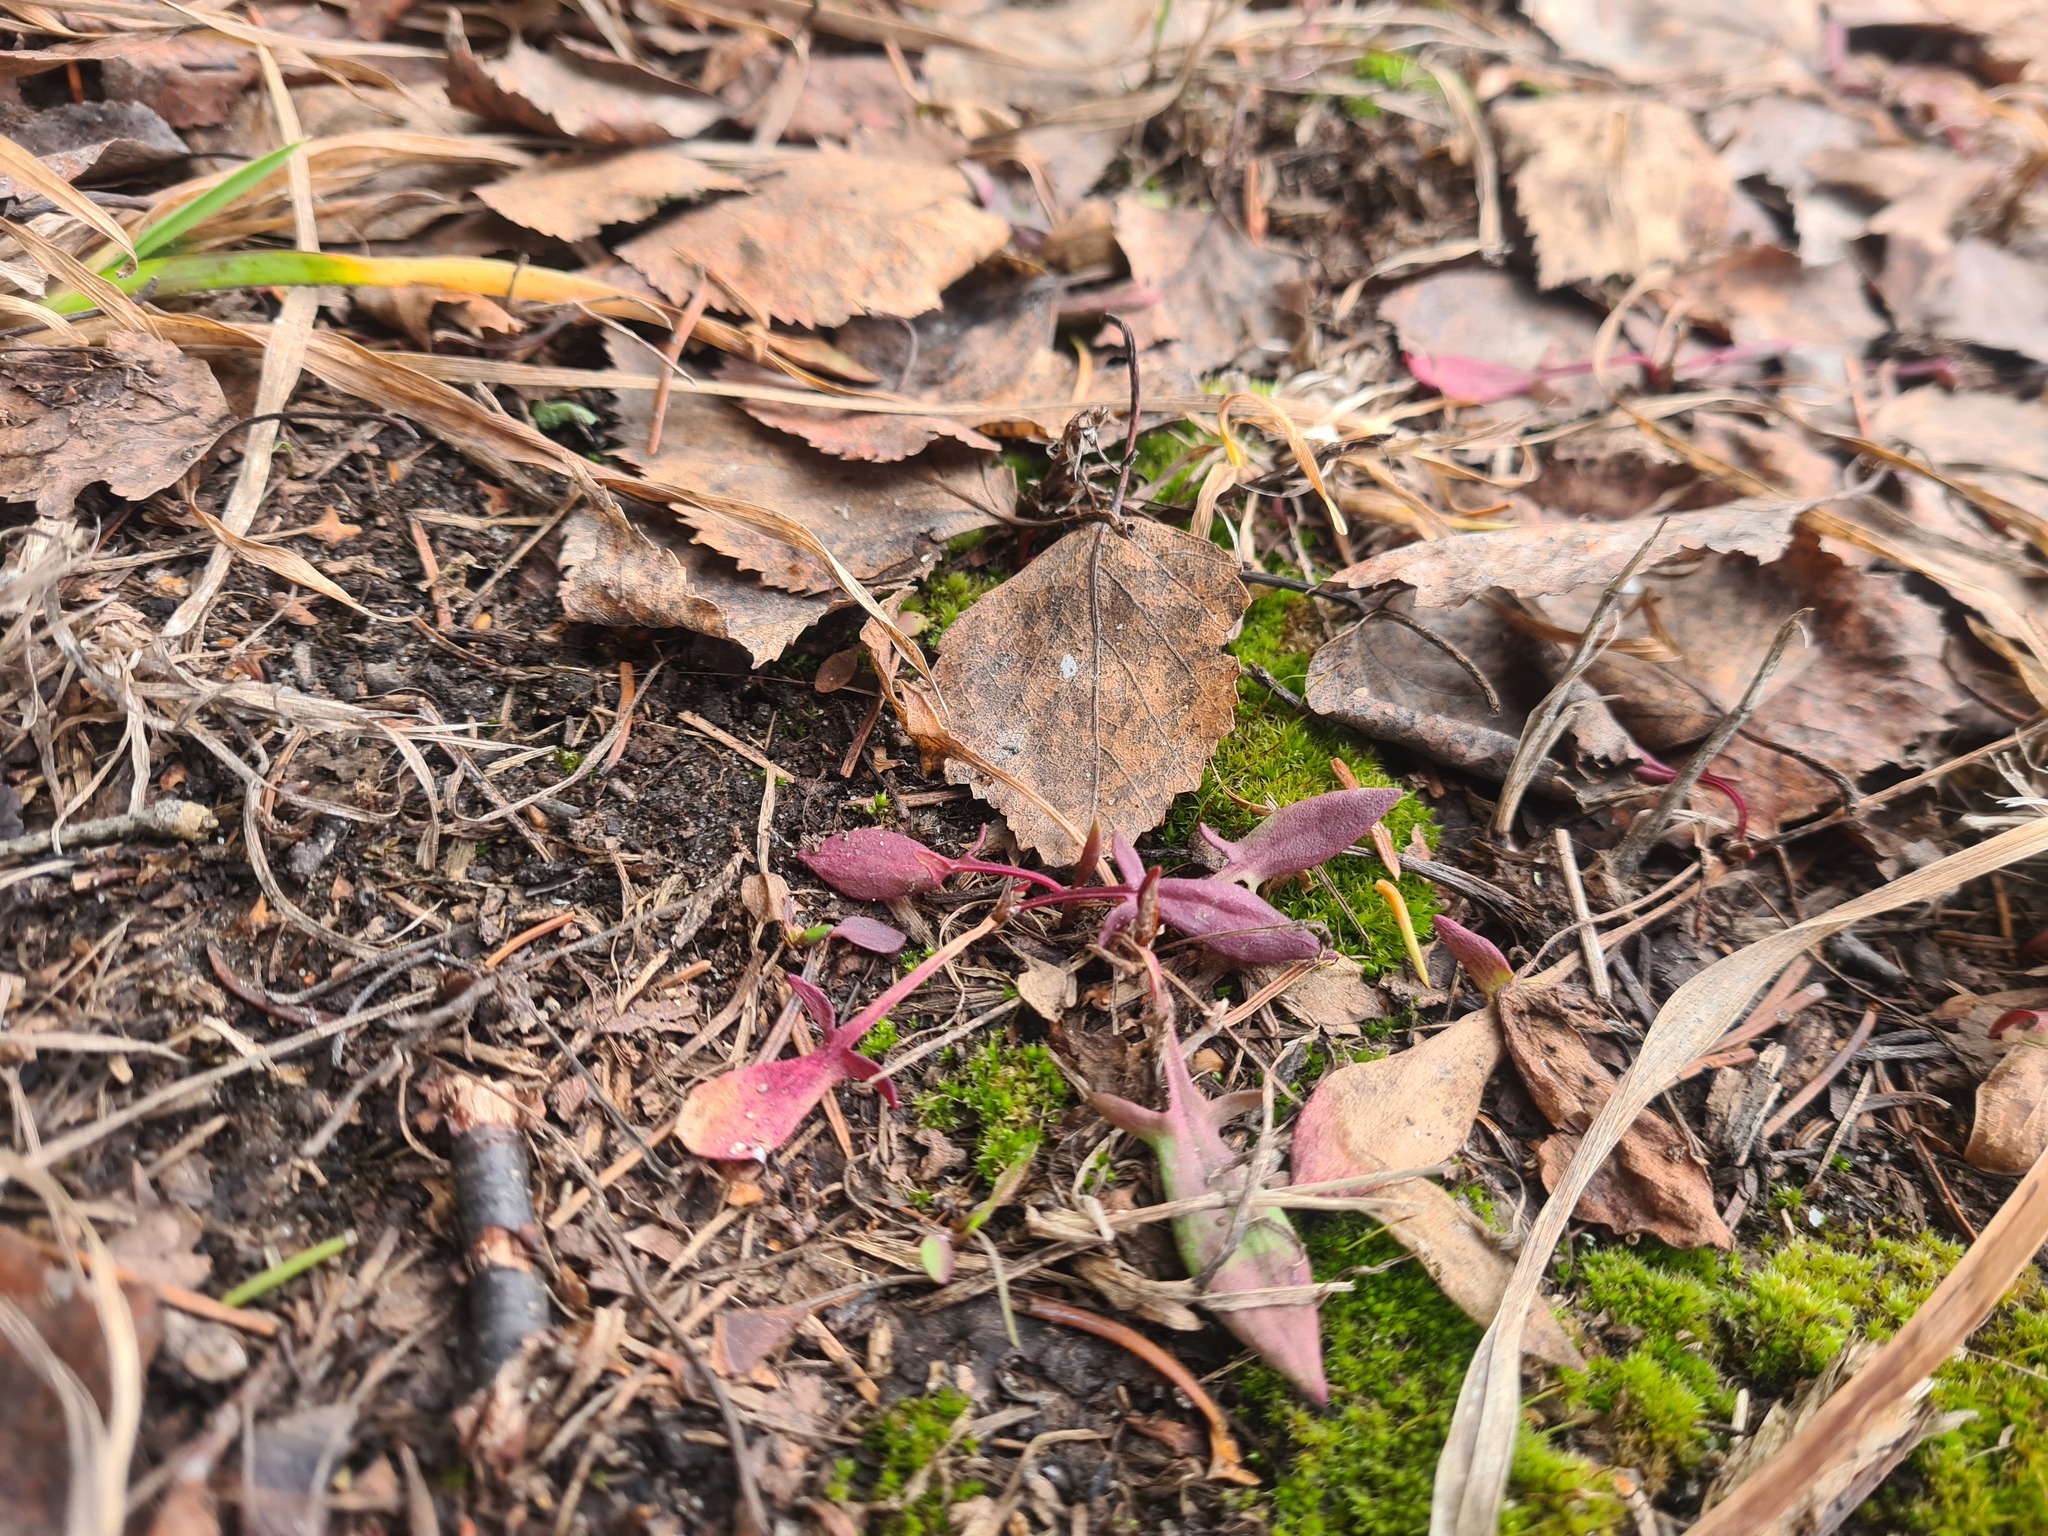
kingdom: Plantae
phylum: Tracheophyta
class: Magnoliopsida
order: Caryophyllales
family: Polygonaceae
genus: Rumex
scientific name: Rumex acetosella
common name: Common sheep sorrel
